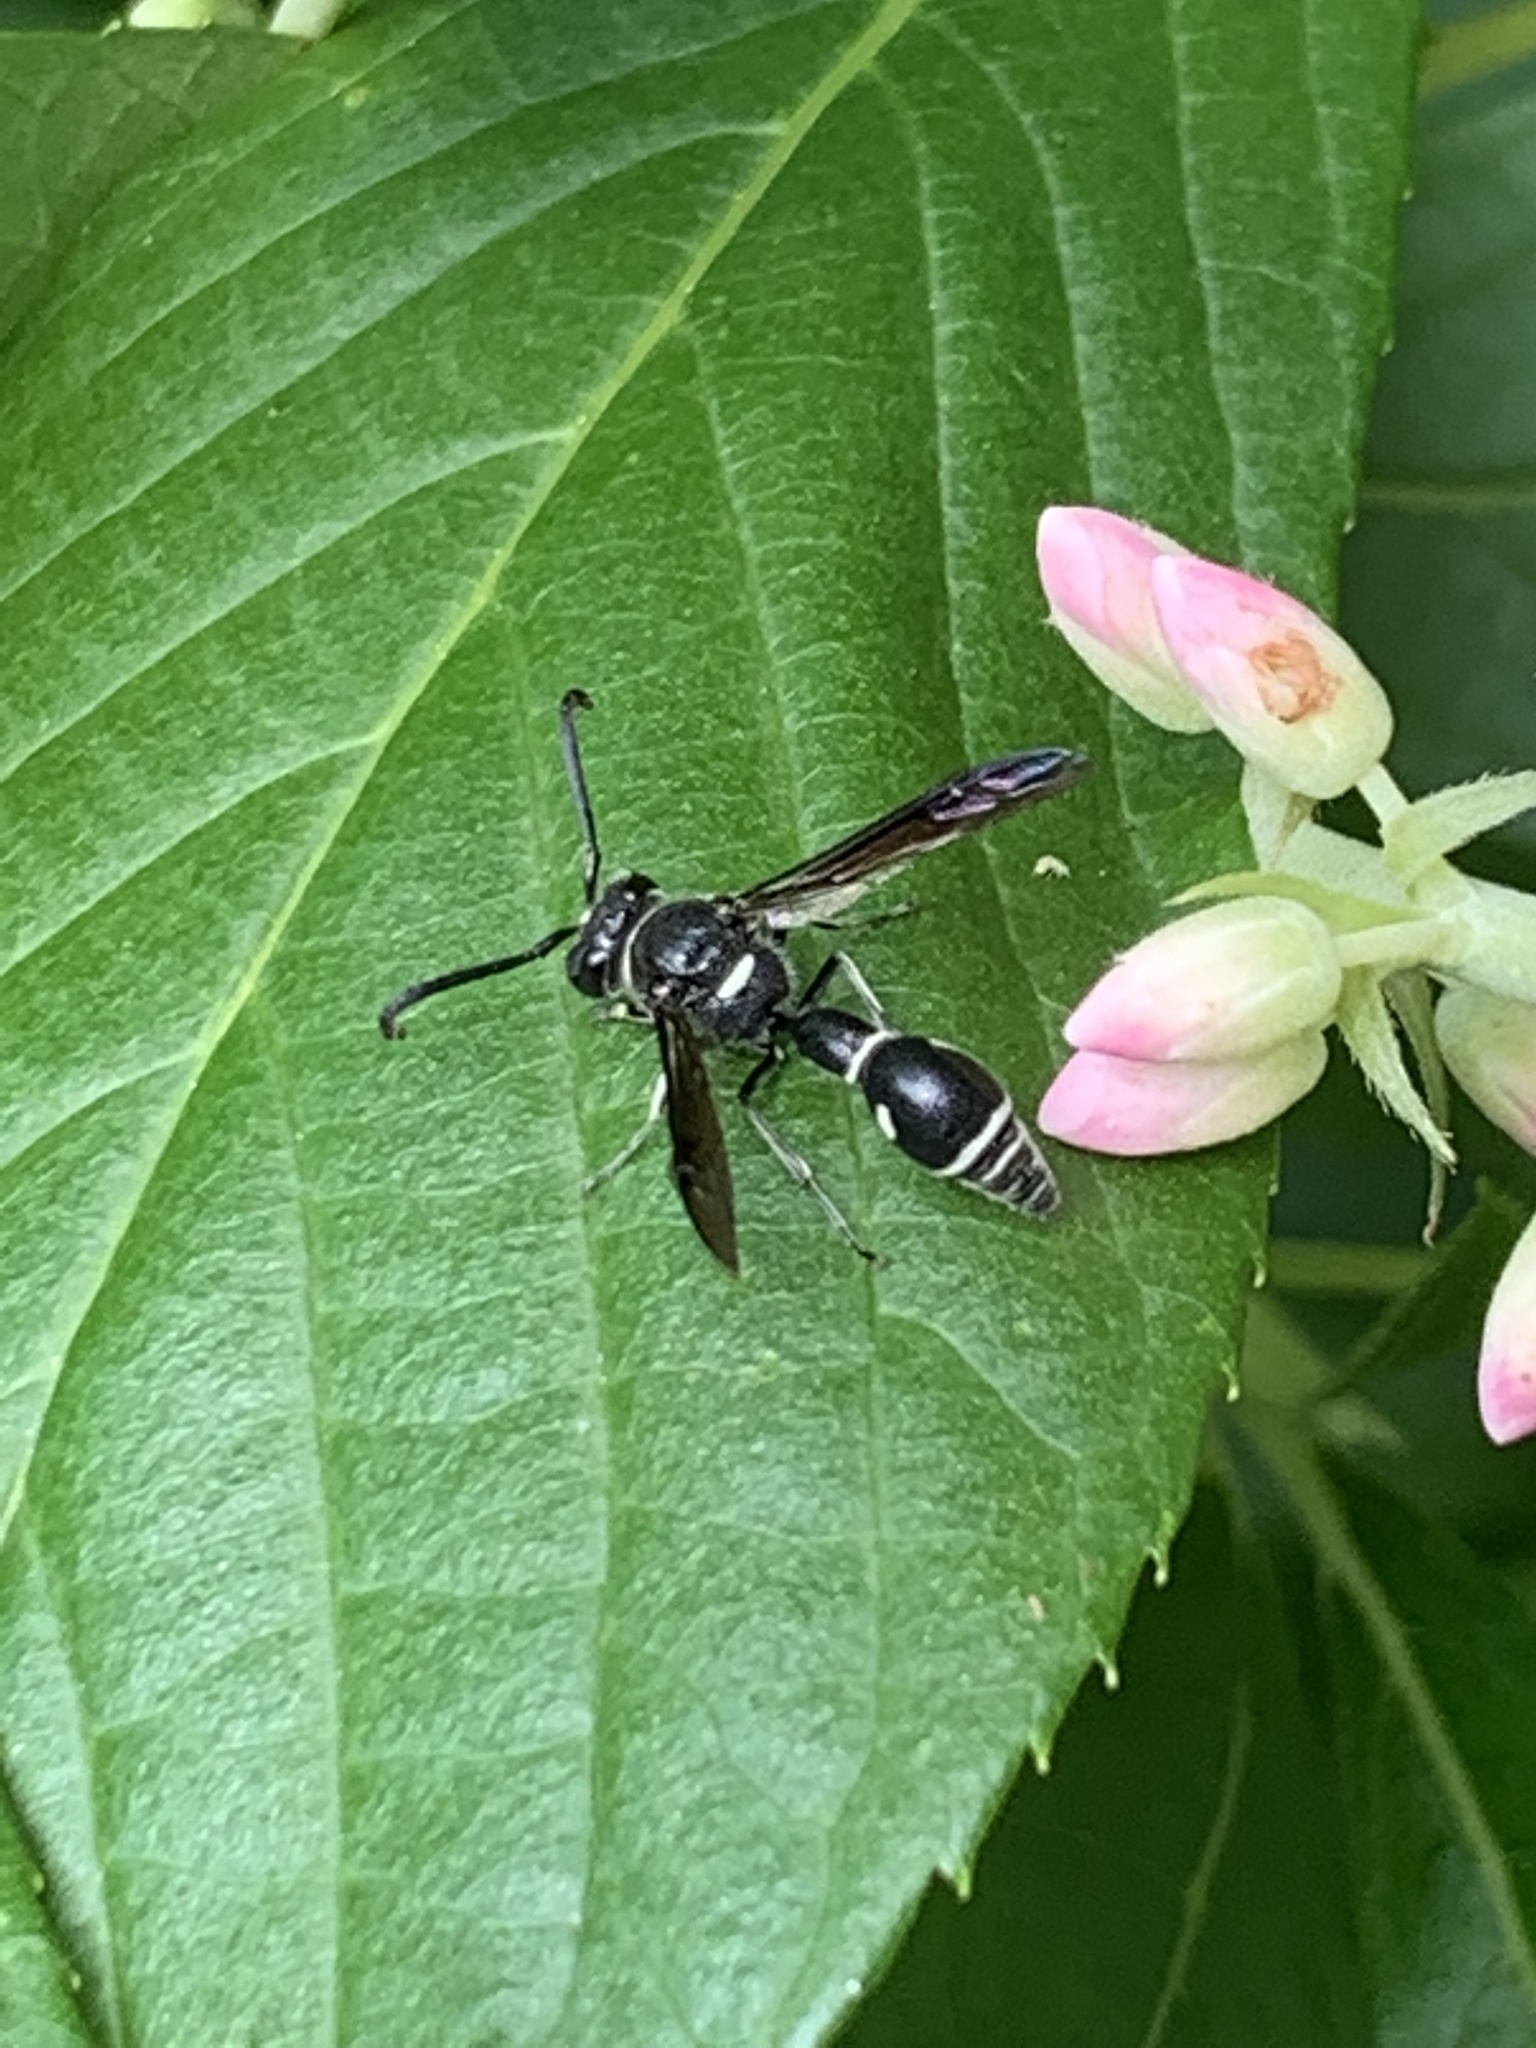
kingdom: Animalia
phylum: Arthropoda
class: Insecta
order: Hymenoptera
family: Vespidae
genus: Eumenes
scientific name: Eumenes fraternus
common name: Fraternal potter wasp
